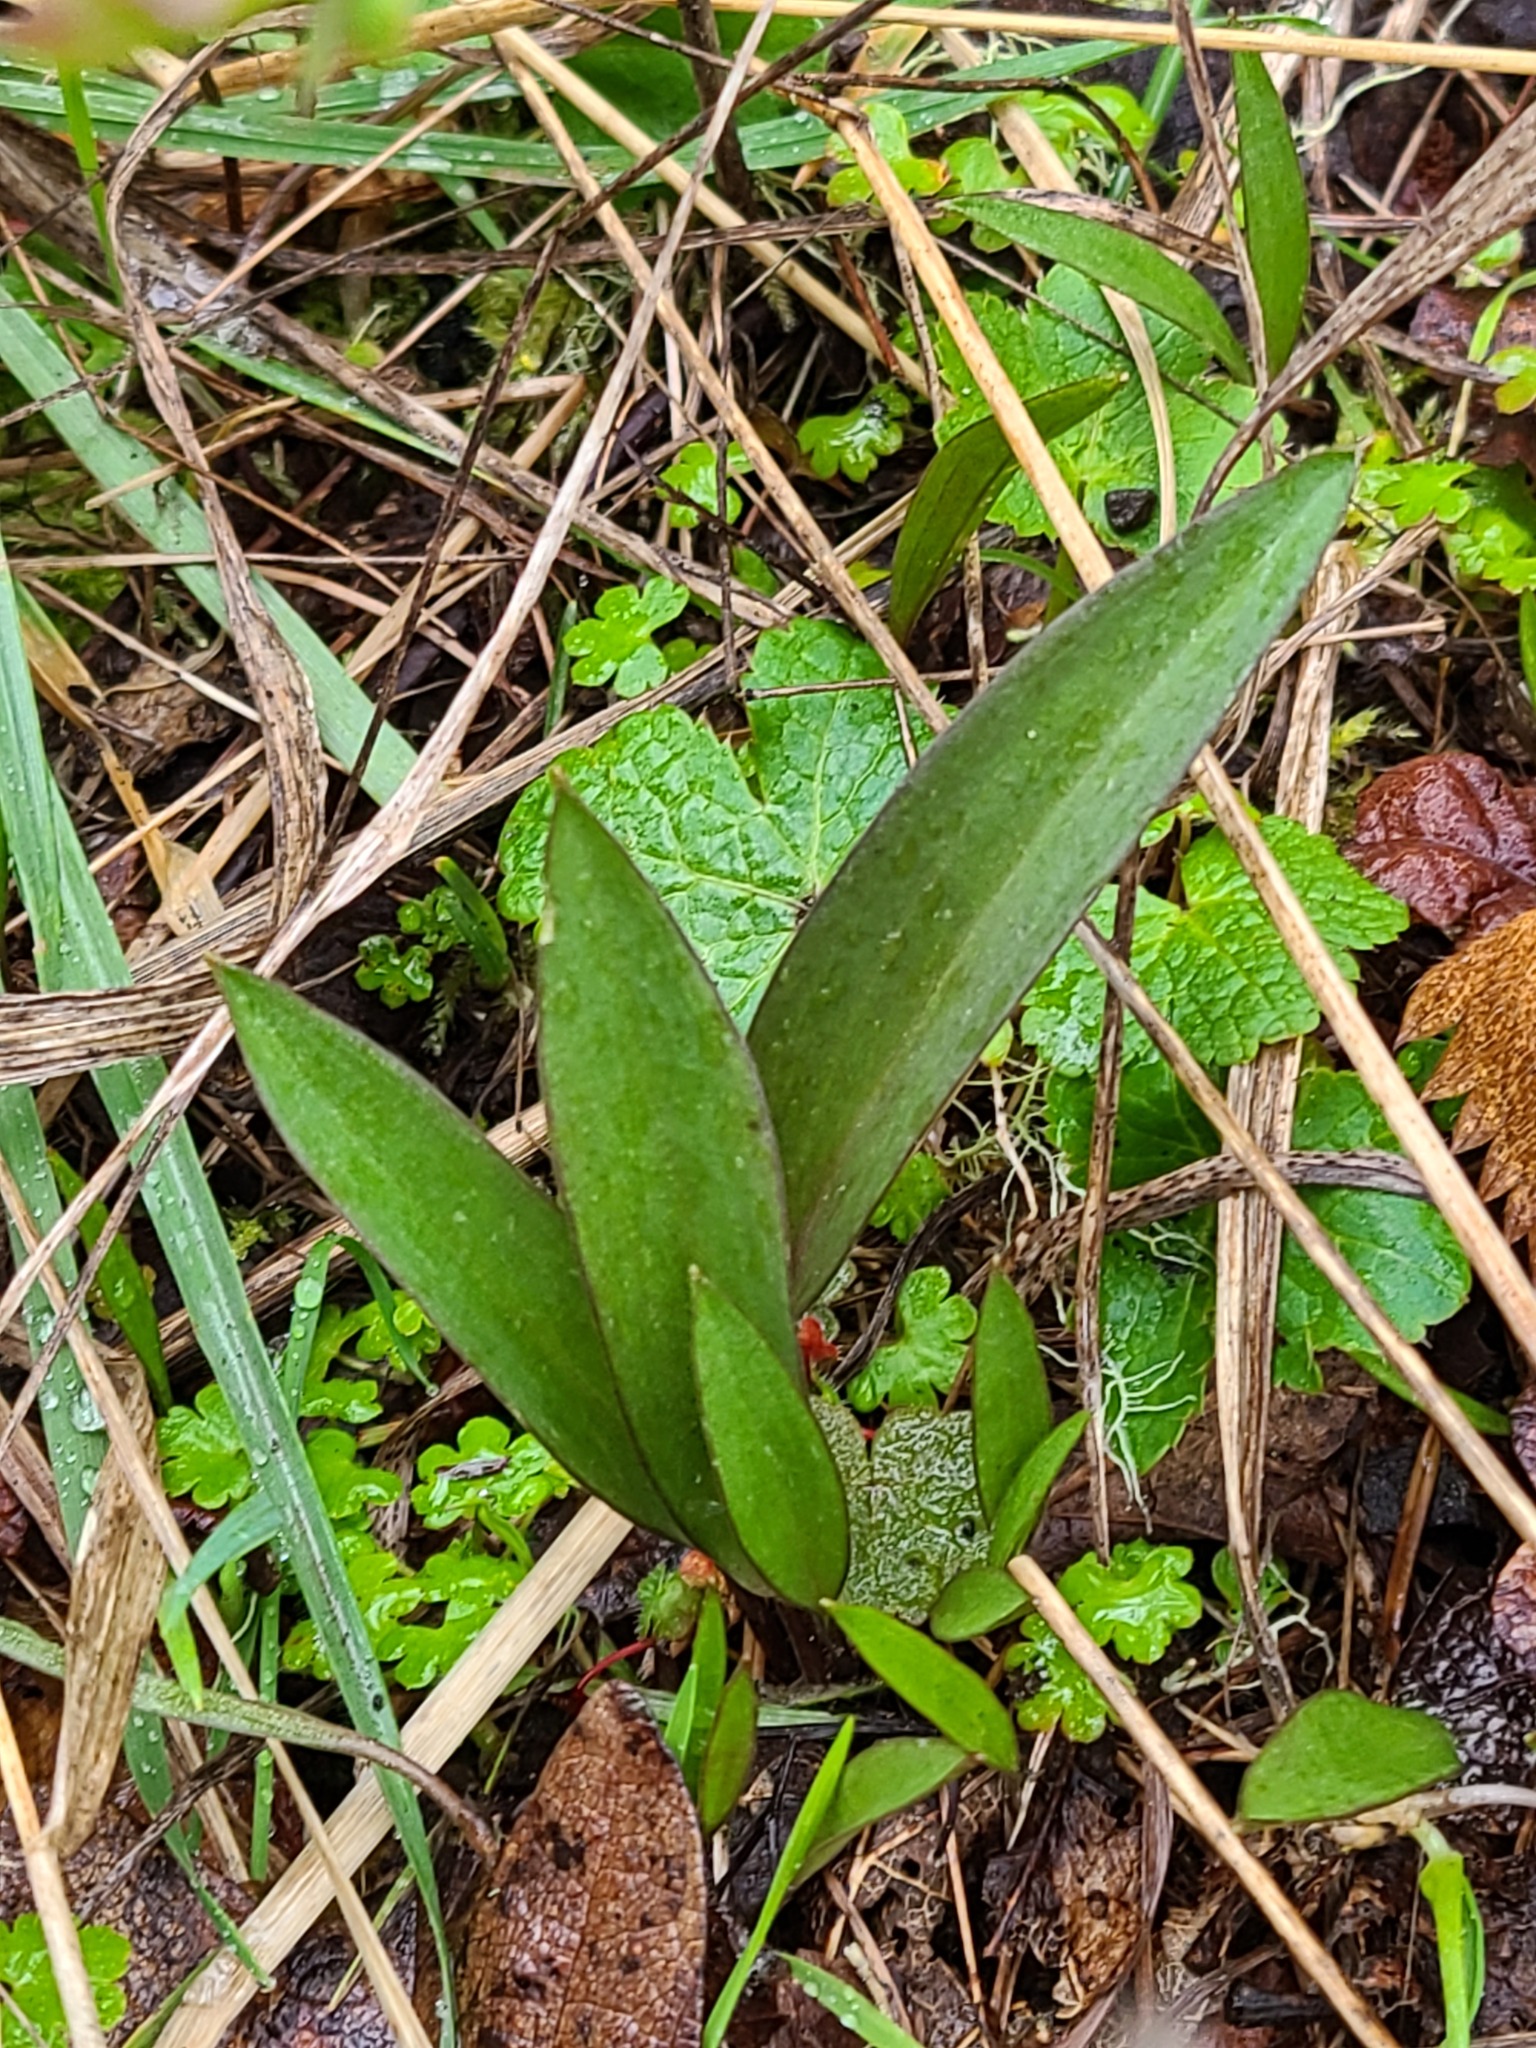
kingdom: Plantae
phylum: Tracheophyta
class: Liliopsida
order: Liliales
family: Liliaceae
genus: Fritillaria
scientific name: Fritillaria affinis
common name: Ojai fritillary
